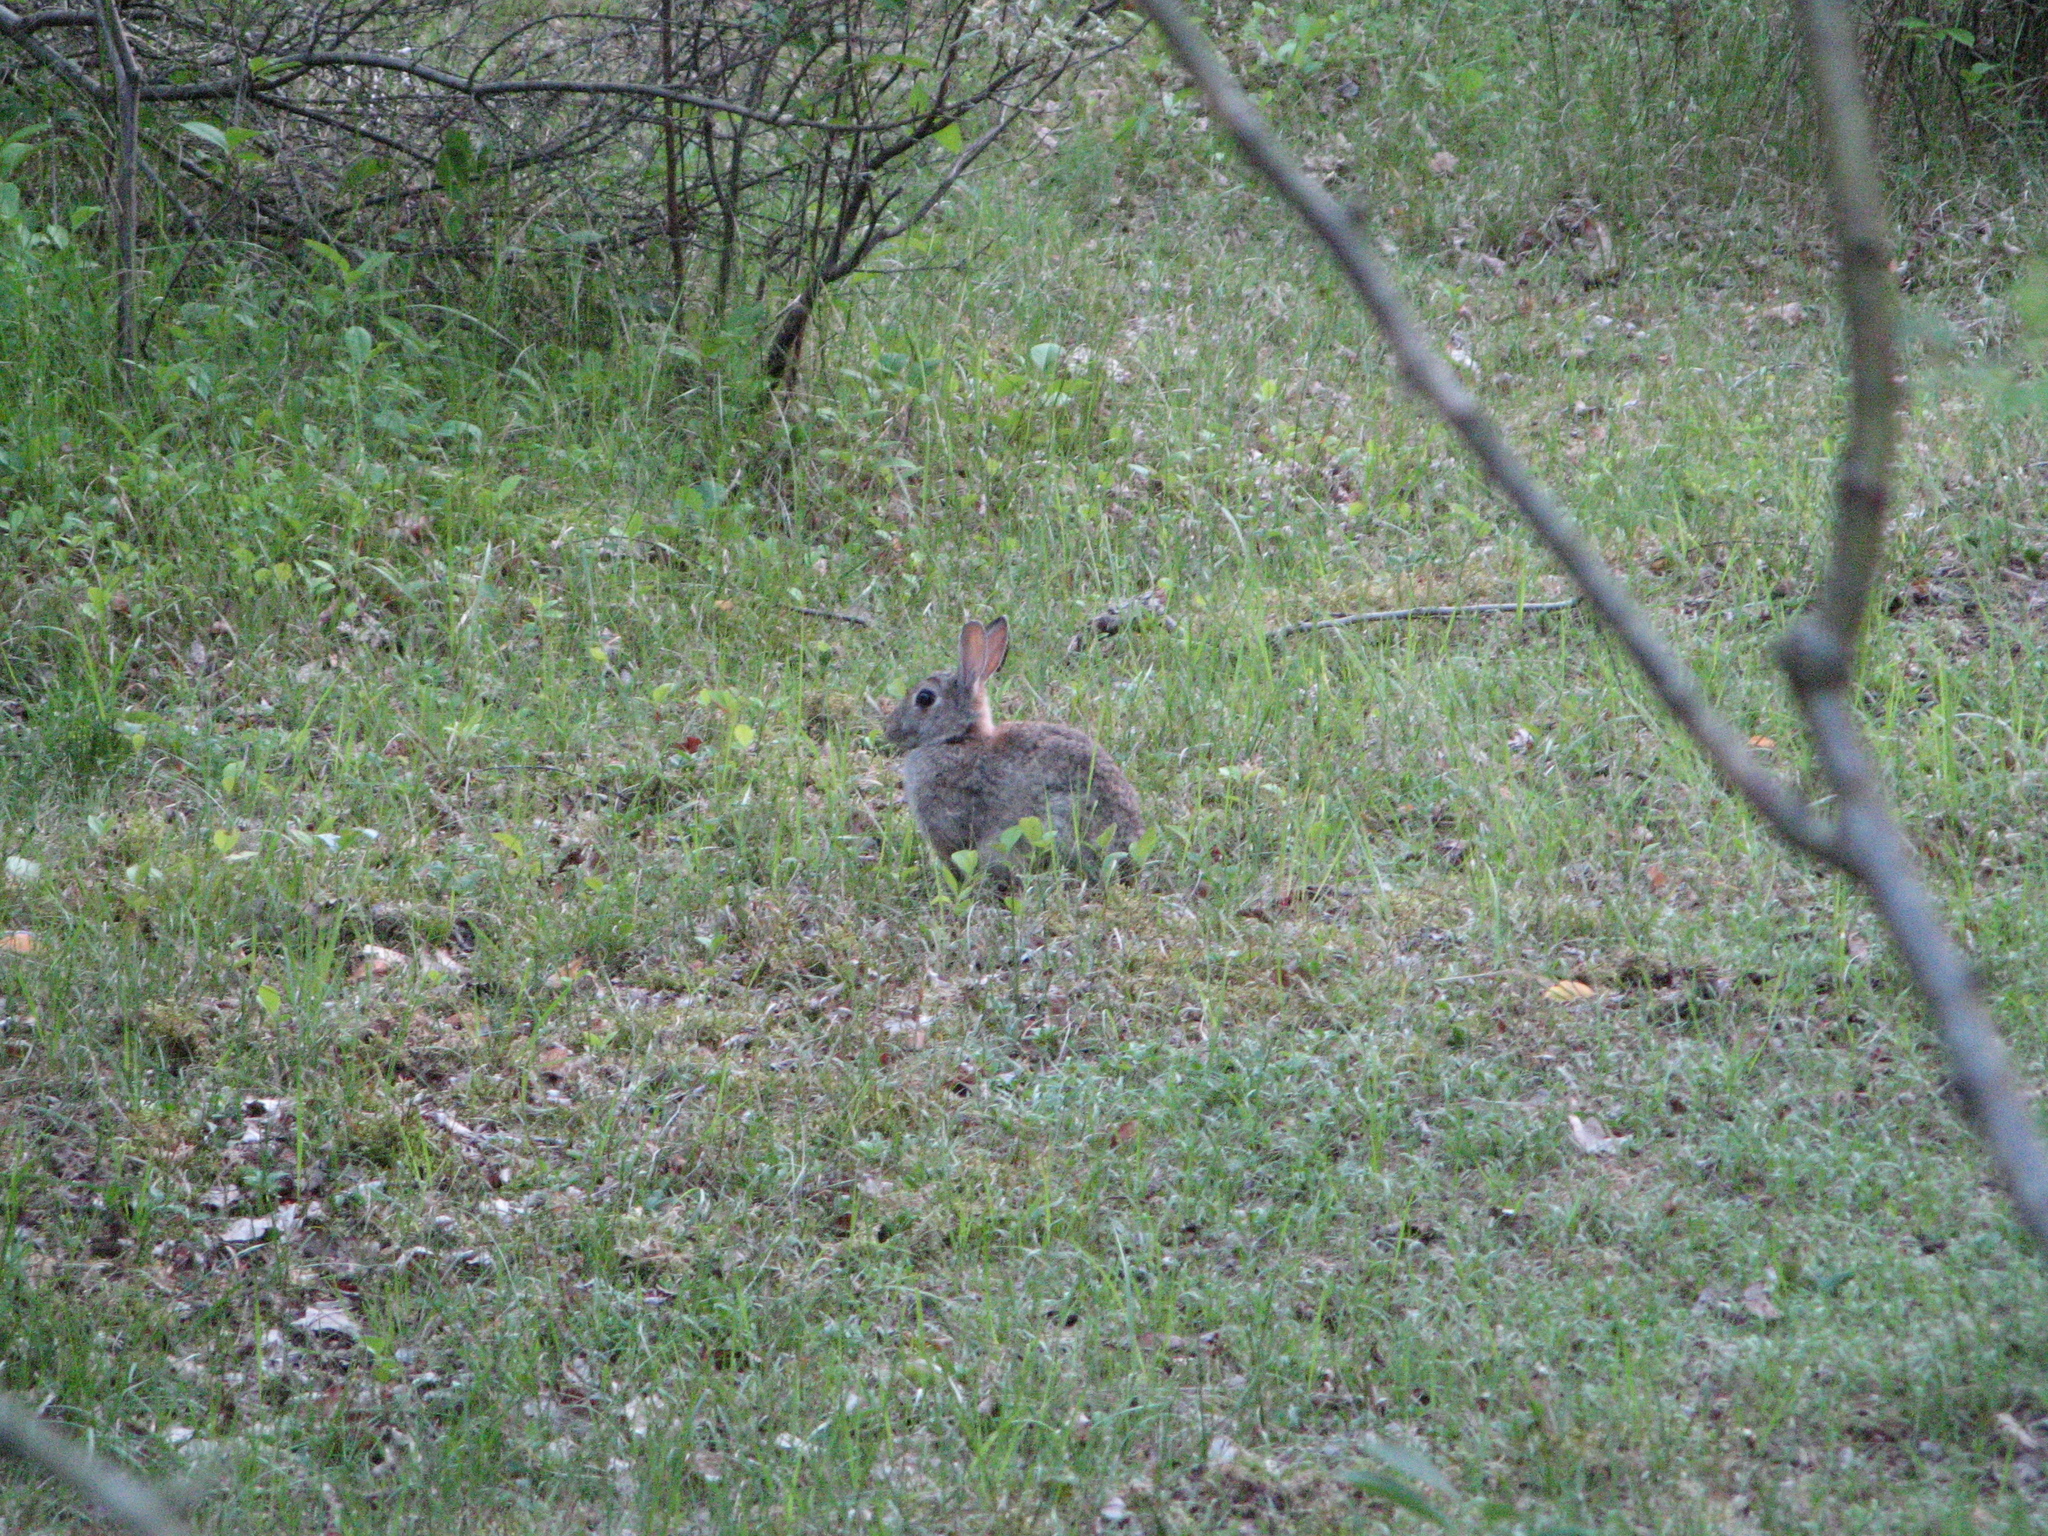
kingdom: Animalia
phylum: Chordata
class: Mammalia
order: Lagomorpha
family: Leporidae
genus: Oryctolagus
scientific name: Oryctolagus cuniculus
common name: European rabbit
